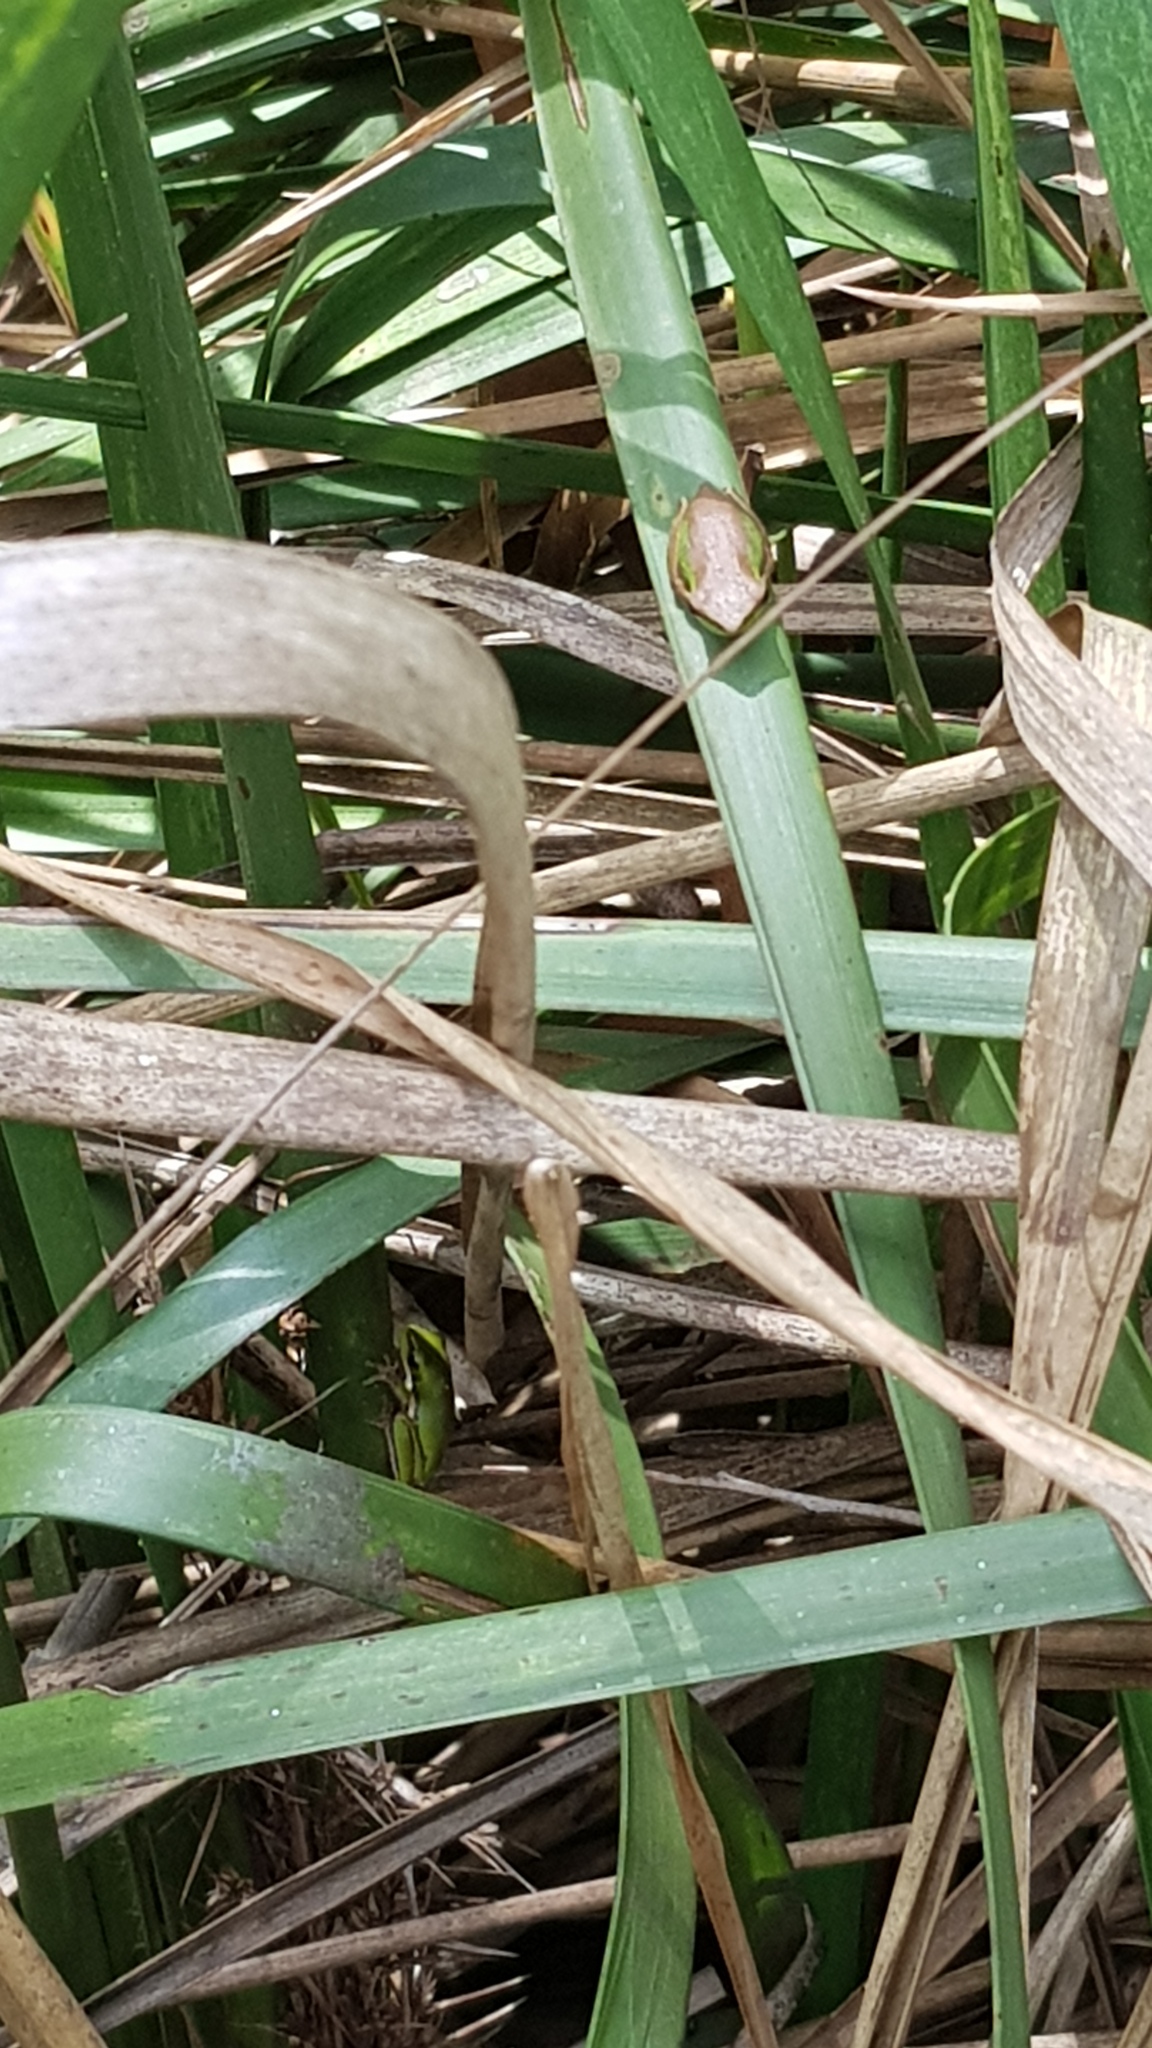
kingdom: Animalia
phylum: Chordata
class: Amphibia
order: Anura
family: Pelodryadidae
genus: Litoria
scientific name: Litoria fallax
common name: Eastern dwarf treefrog
